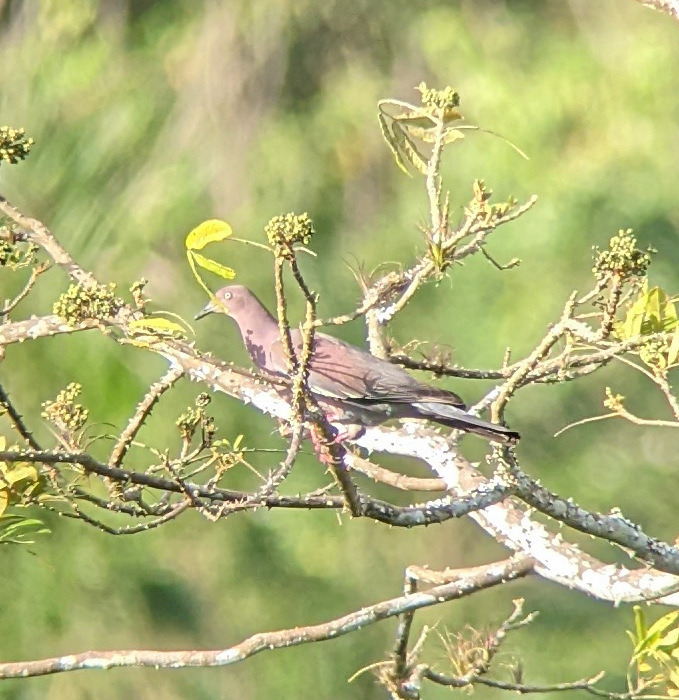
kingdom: Animalia
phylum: Chordata
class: Aves
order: Columbiformes
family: Columbidae
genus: Patagioenas
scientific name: Patagioenas inornata
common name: Plain pigeon
